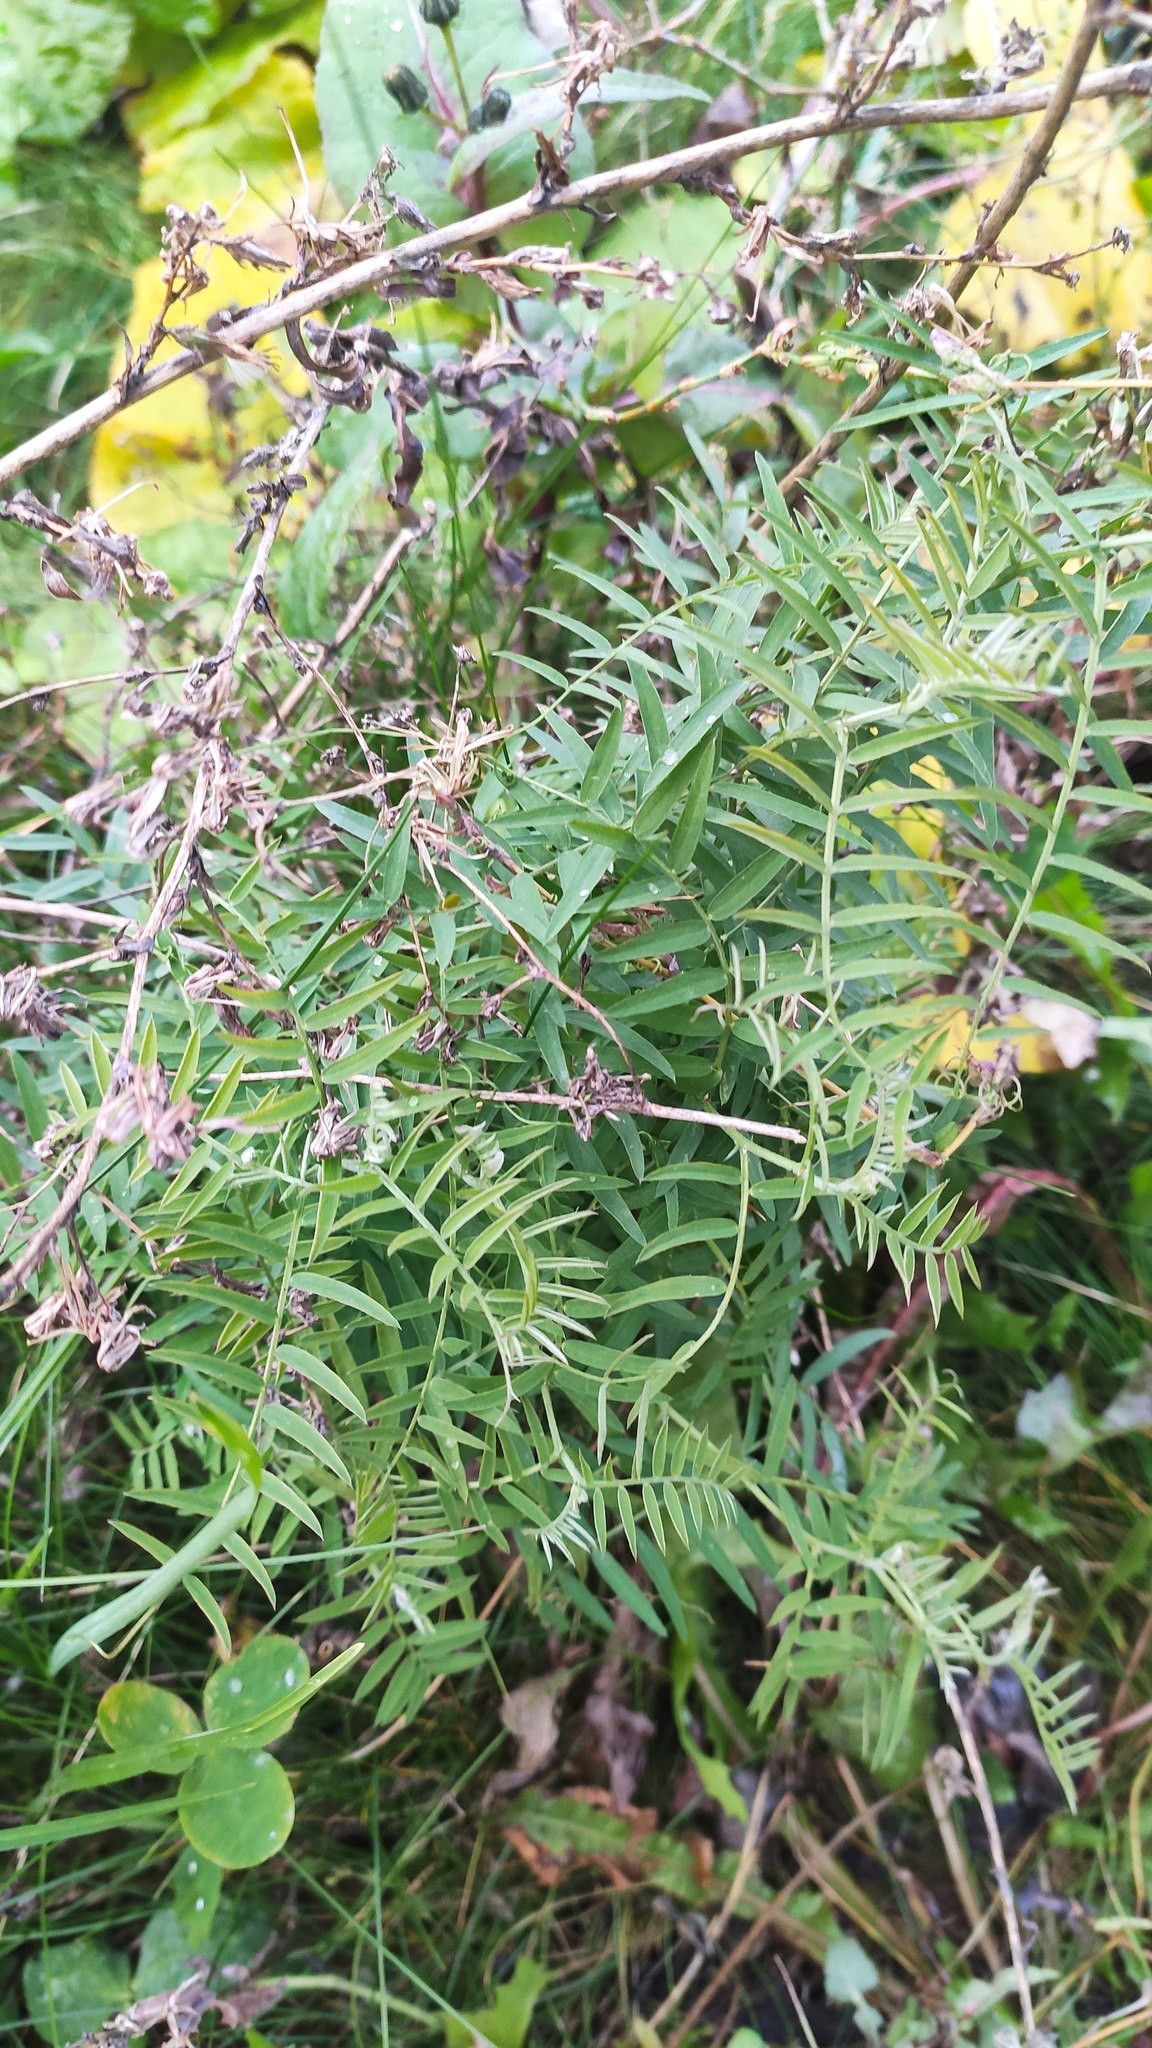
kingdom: Plantae
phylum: Tracheophyta
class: Magnoliopsida
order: Fabales
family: Fabaceae
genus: Vicia
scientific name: Vicia cracca
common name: Bird vetch
